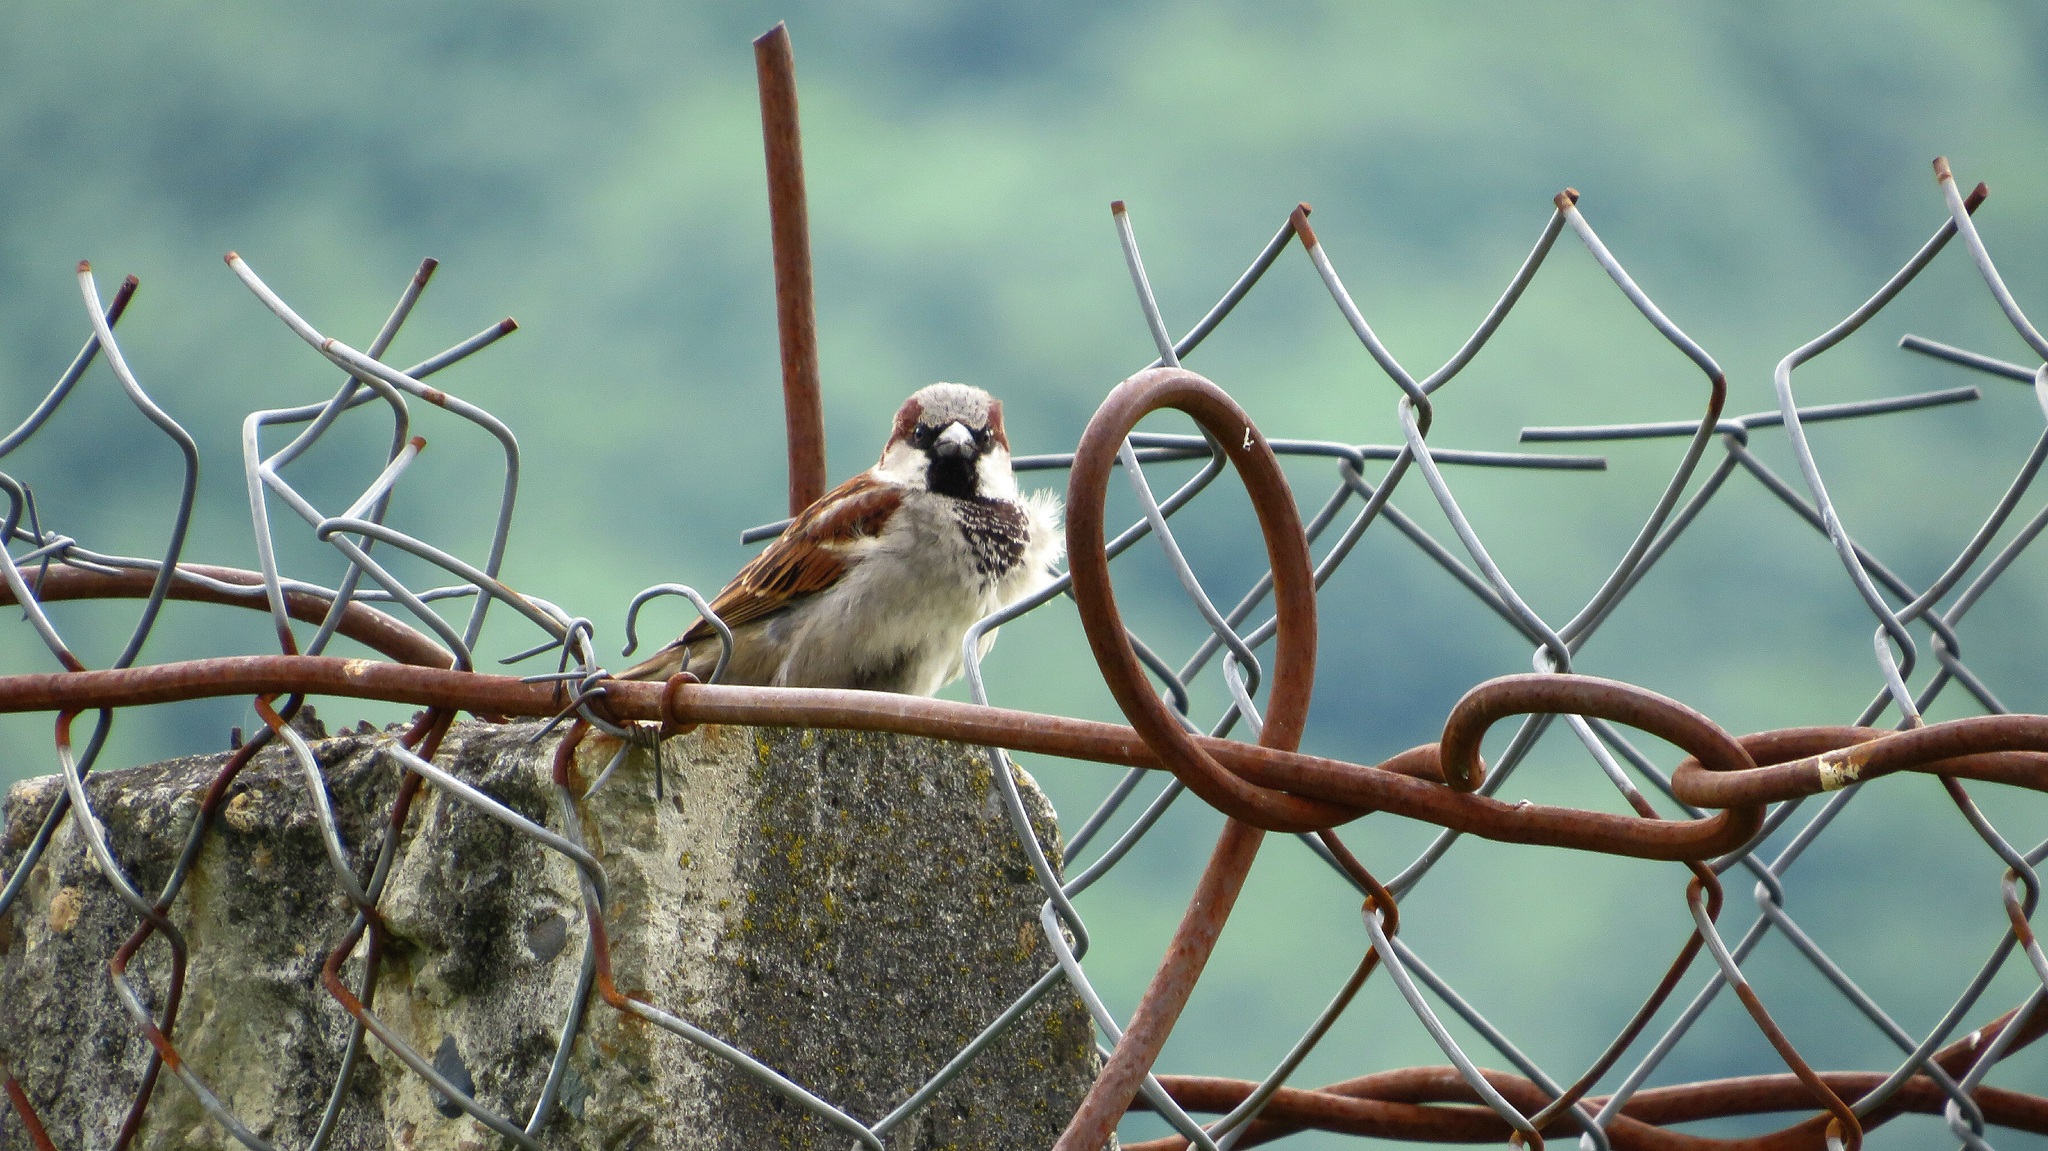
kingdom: Animalia
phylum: Chordata
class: Aves
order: Passeriformes
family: Passeridae
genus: Passer
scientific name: Passer domesticus
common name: House sparrow
